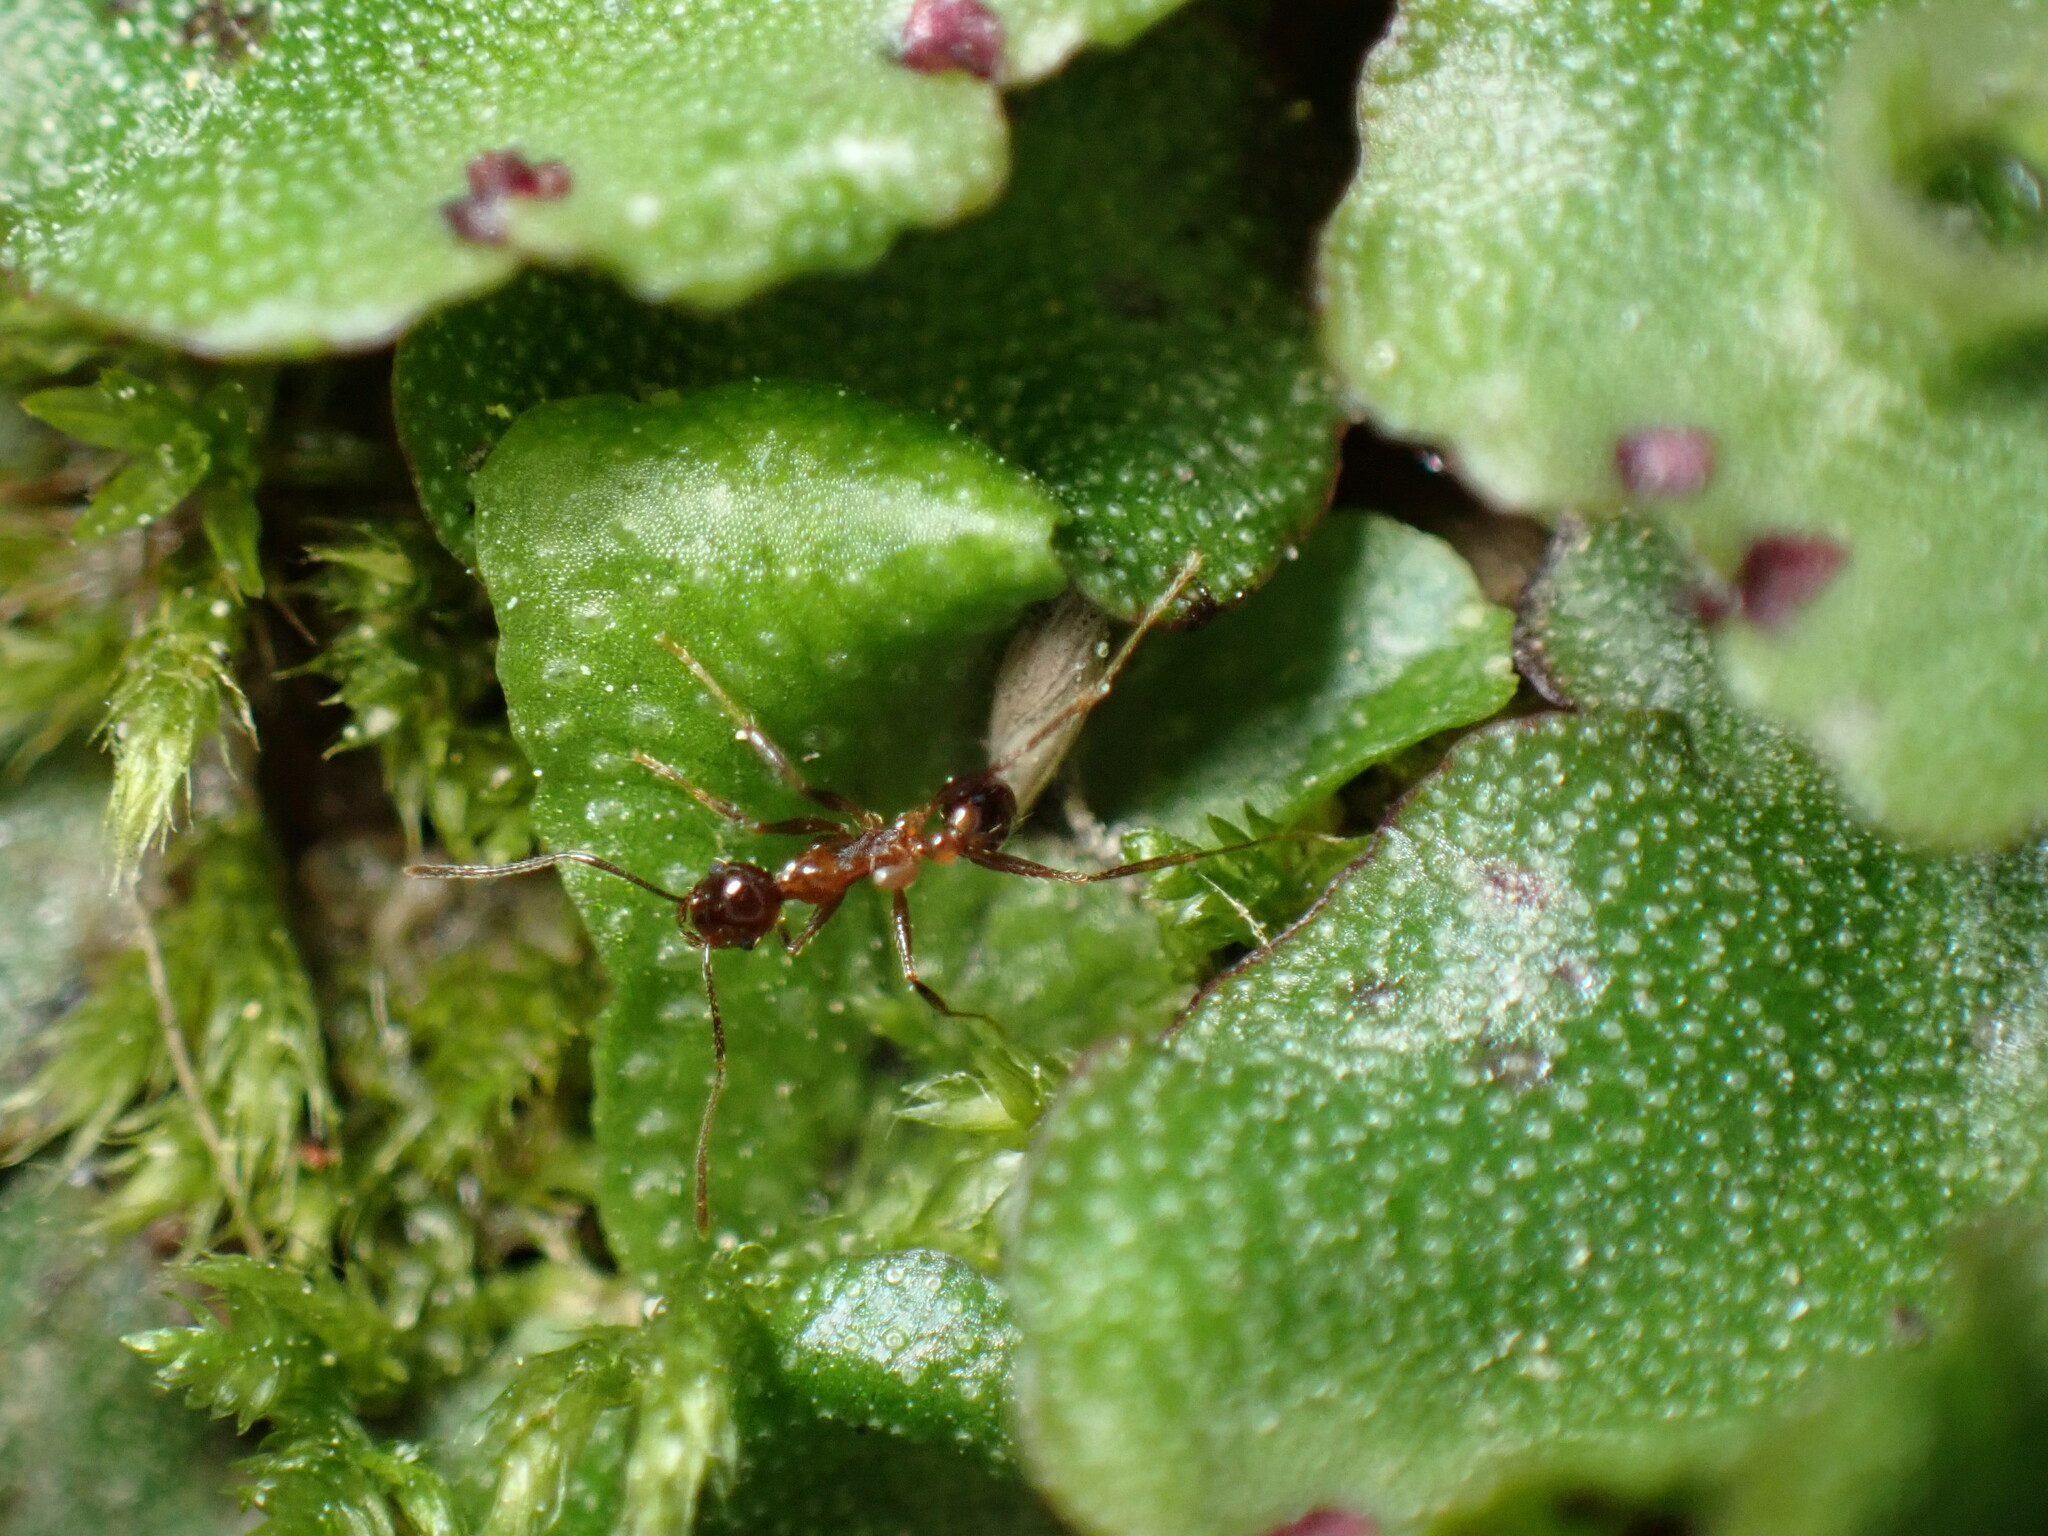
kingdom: Animalia
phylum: Arthropoda
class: Insecta
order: Hymenoptera
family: Formicidae
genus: Pheidole
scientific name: Pheidole noda
